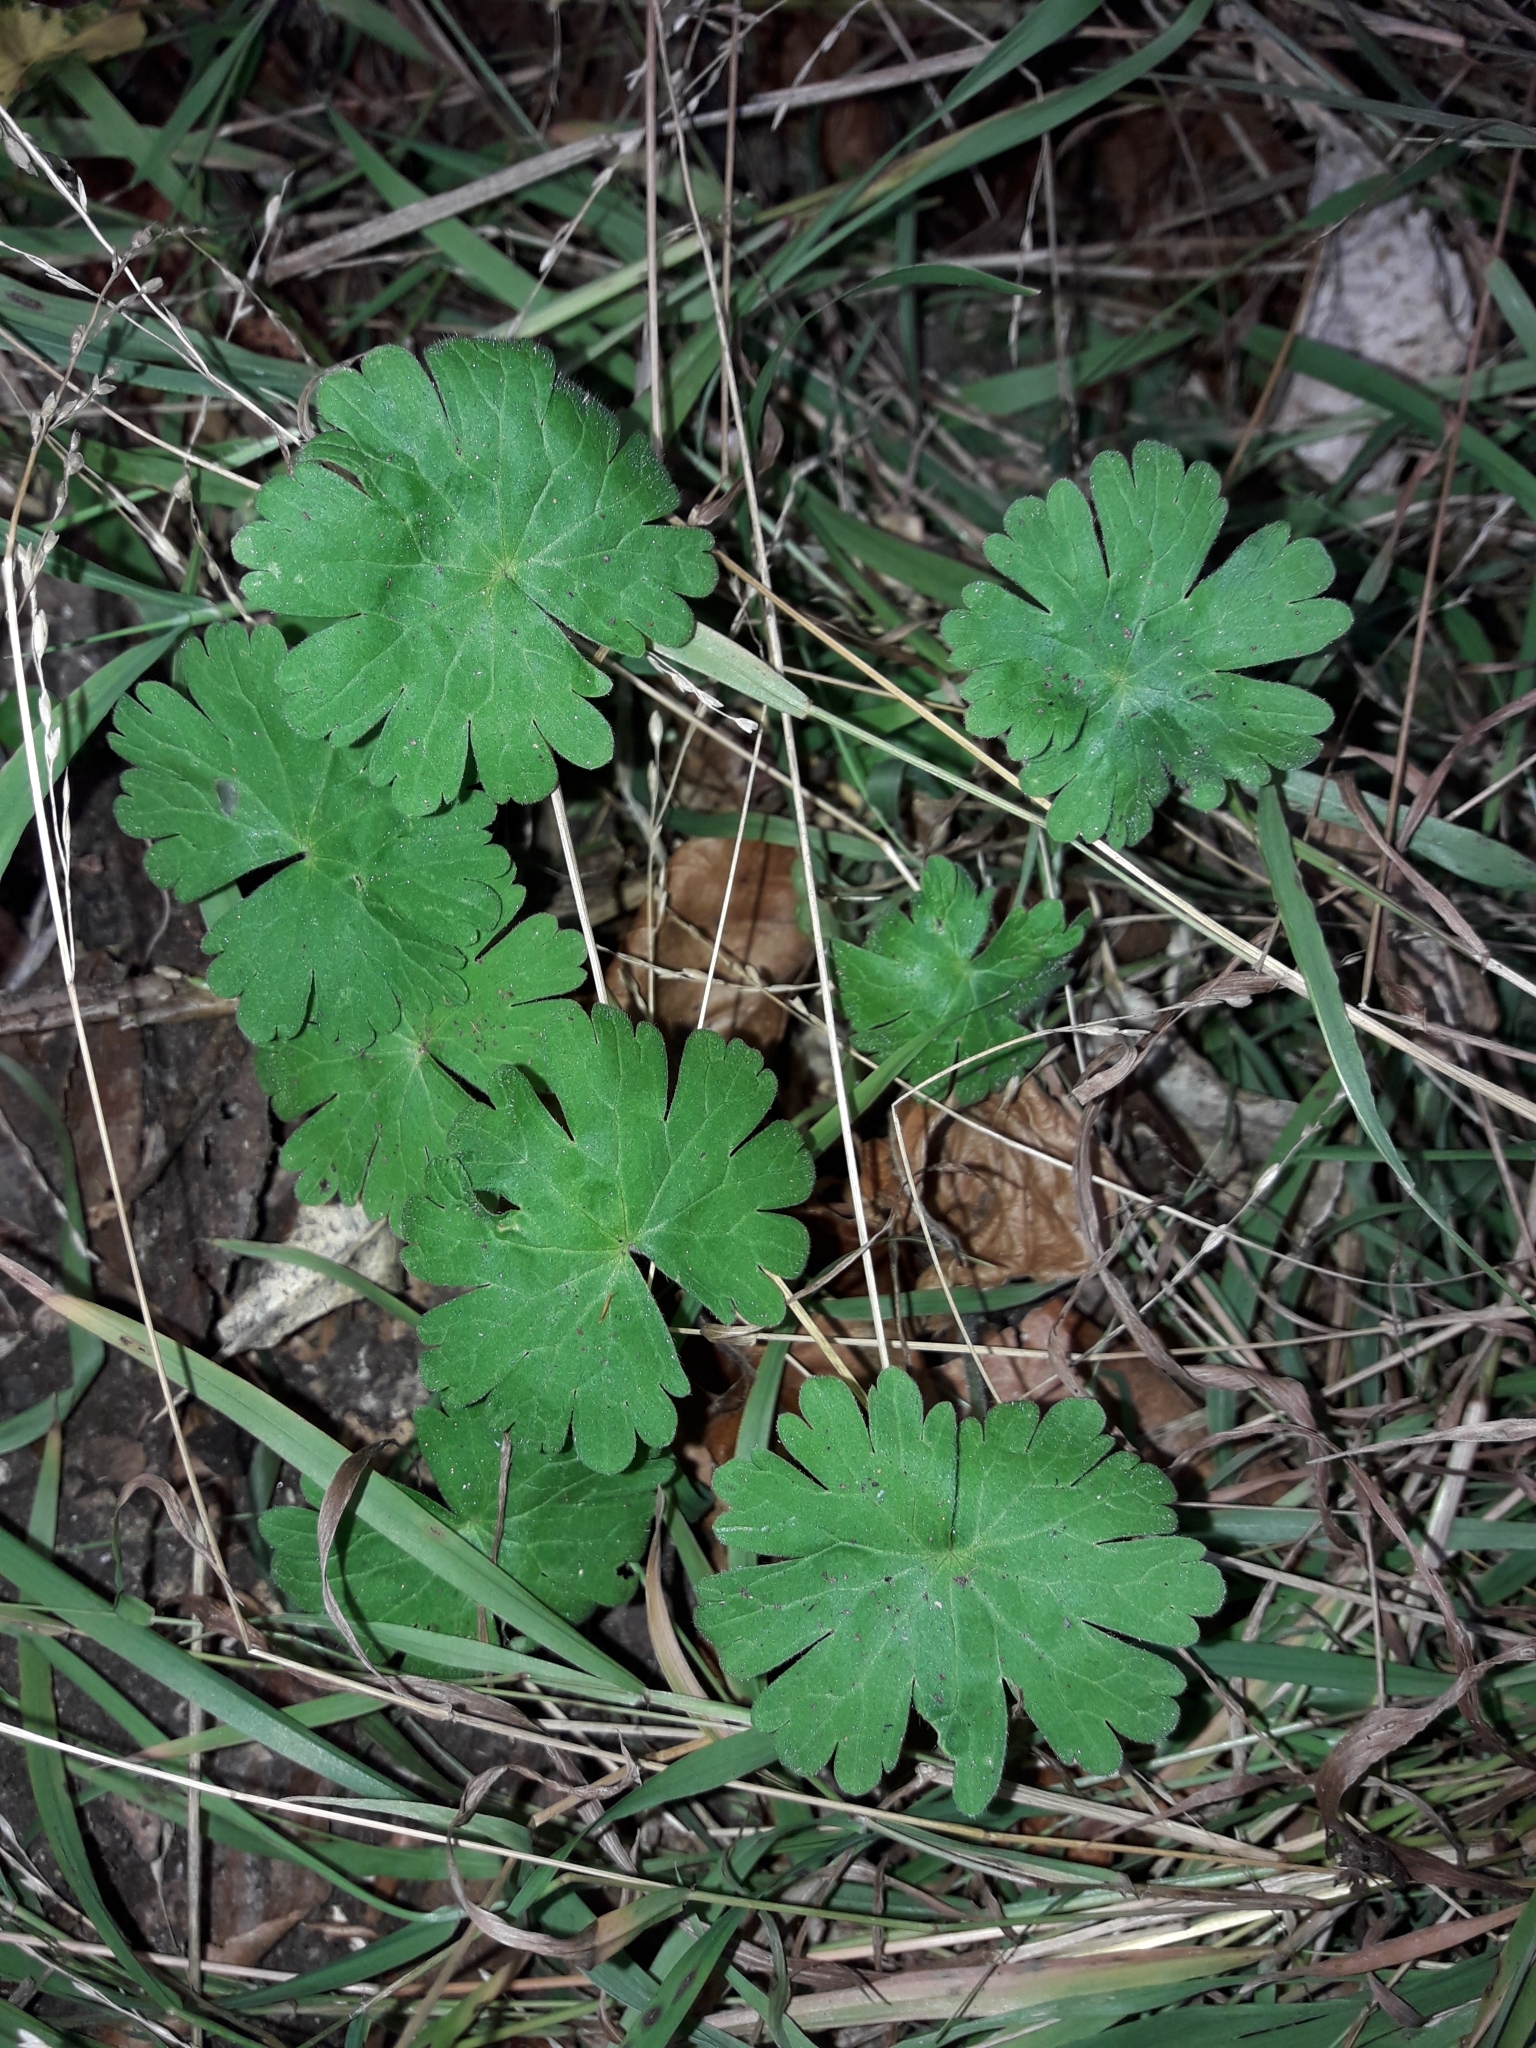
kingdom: Plantae
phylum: Tracheophyta
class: Magnoliopsida
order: Geraniales
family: Geraniaceae
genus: Geranium
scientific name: Geranium molle
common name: Dove's-foot crane's-bill
